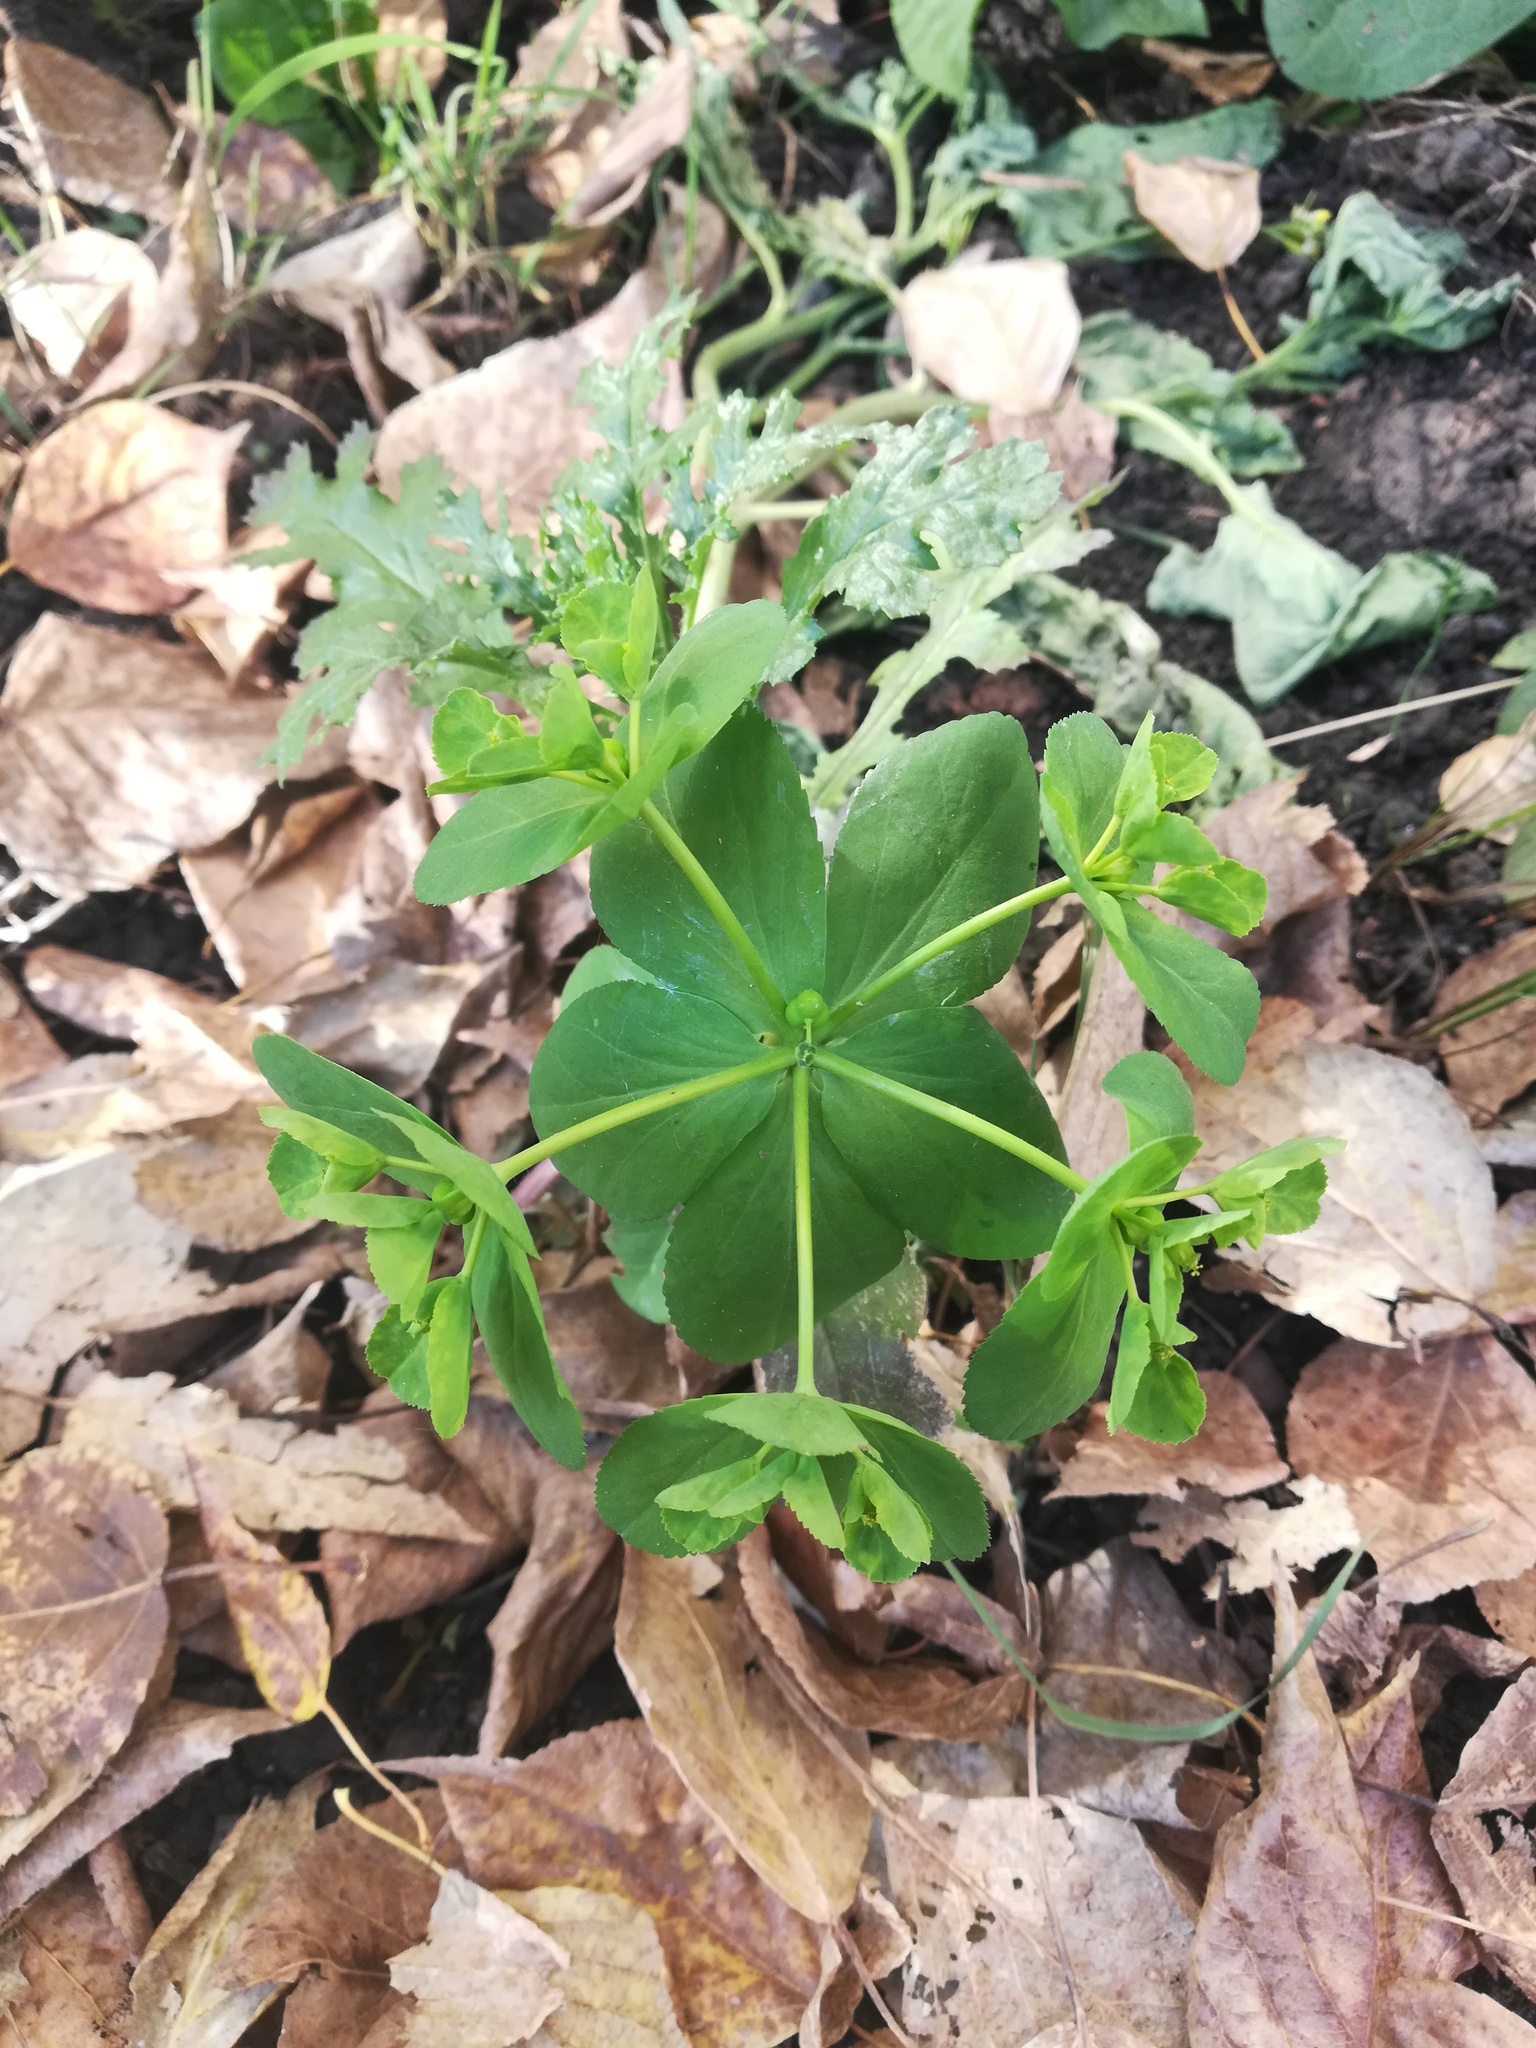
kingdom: Plantae
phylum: Tracheophyta
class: Magnoliopsida
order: Malpighiales
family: Euphorbiaceae
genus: Euphorbia
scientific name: Euphorbia helioscopia
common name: Sun spurge
